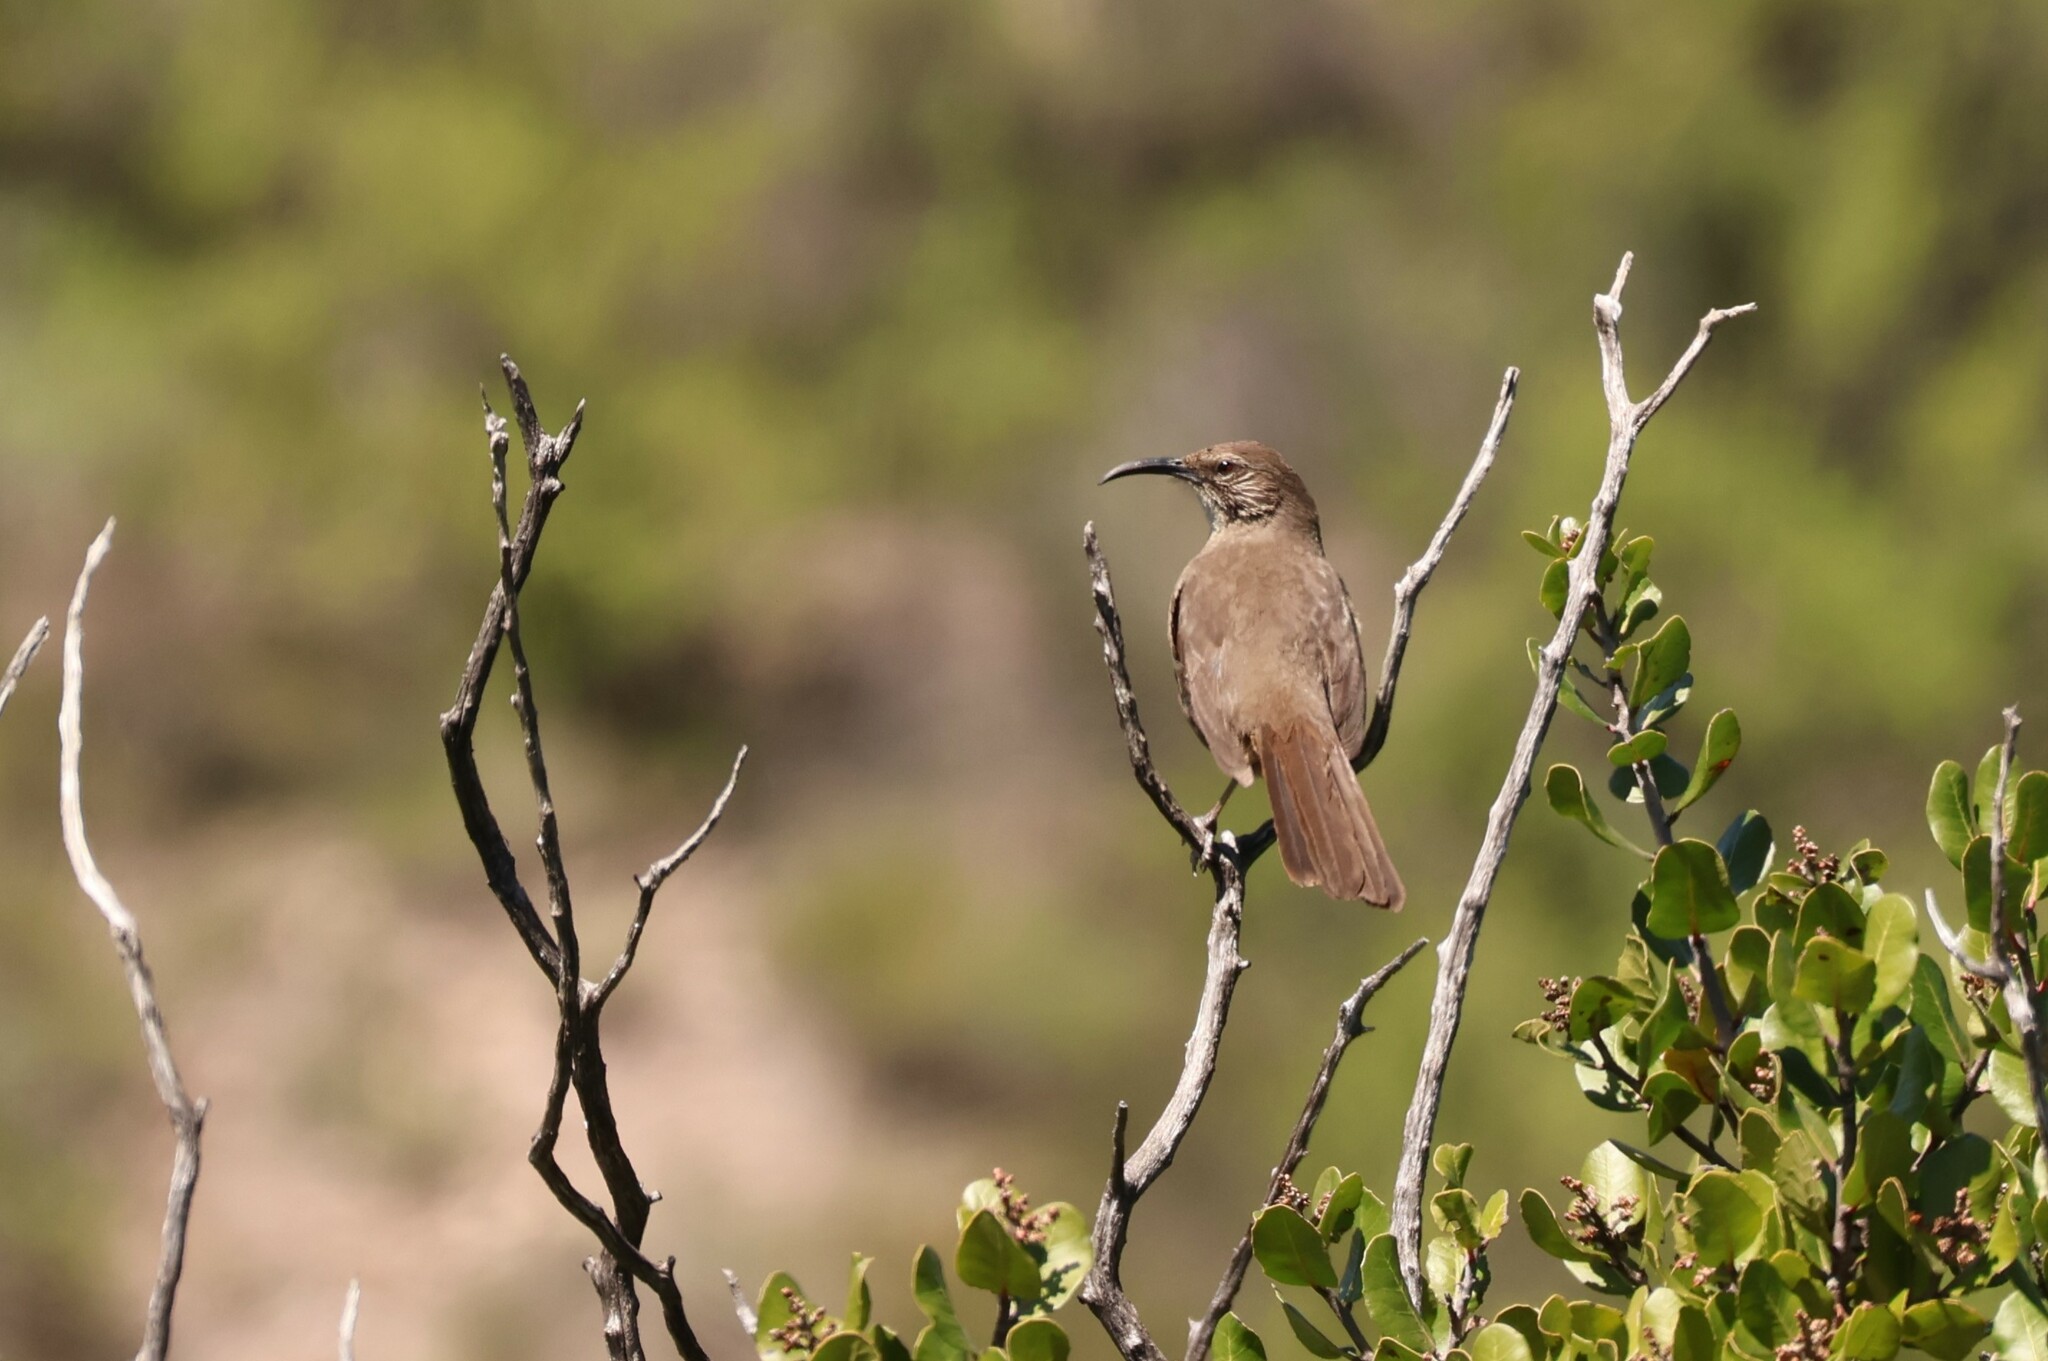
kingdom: Animalia
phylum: Chordata
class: Aves
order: Passeriformes
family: Mimidae
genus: Toxostoma
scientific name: Toxostoma redivivum
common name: California thrasher
